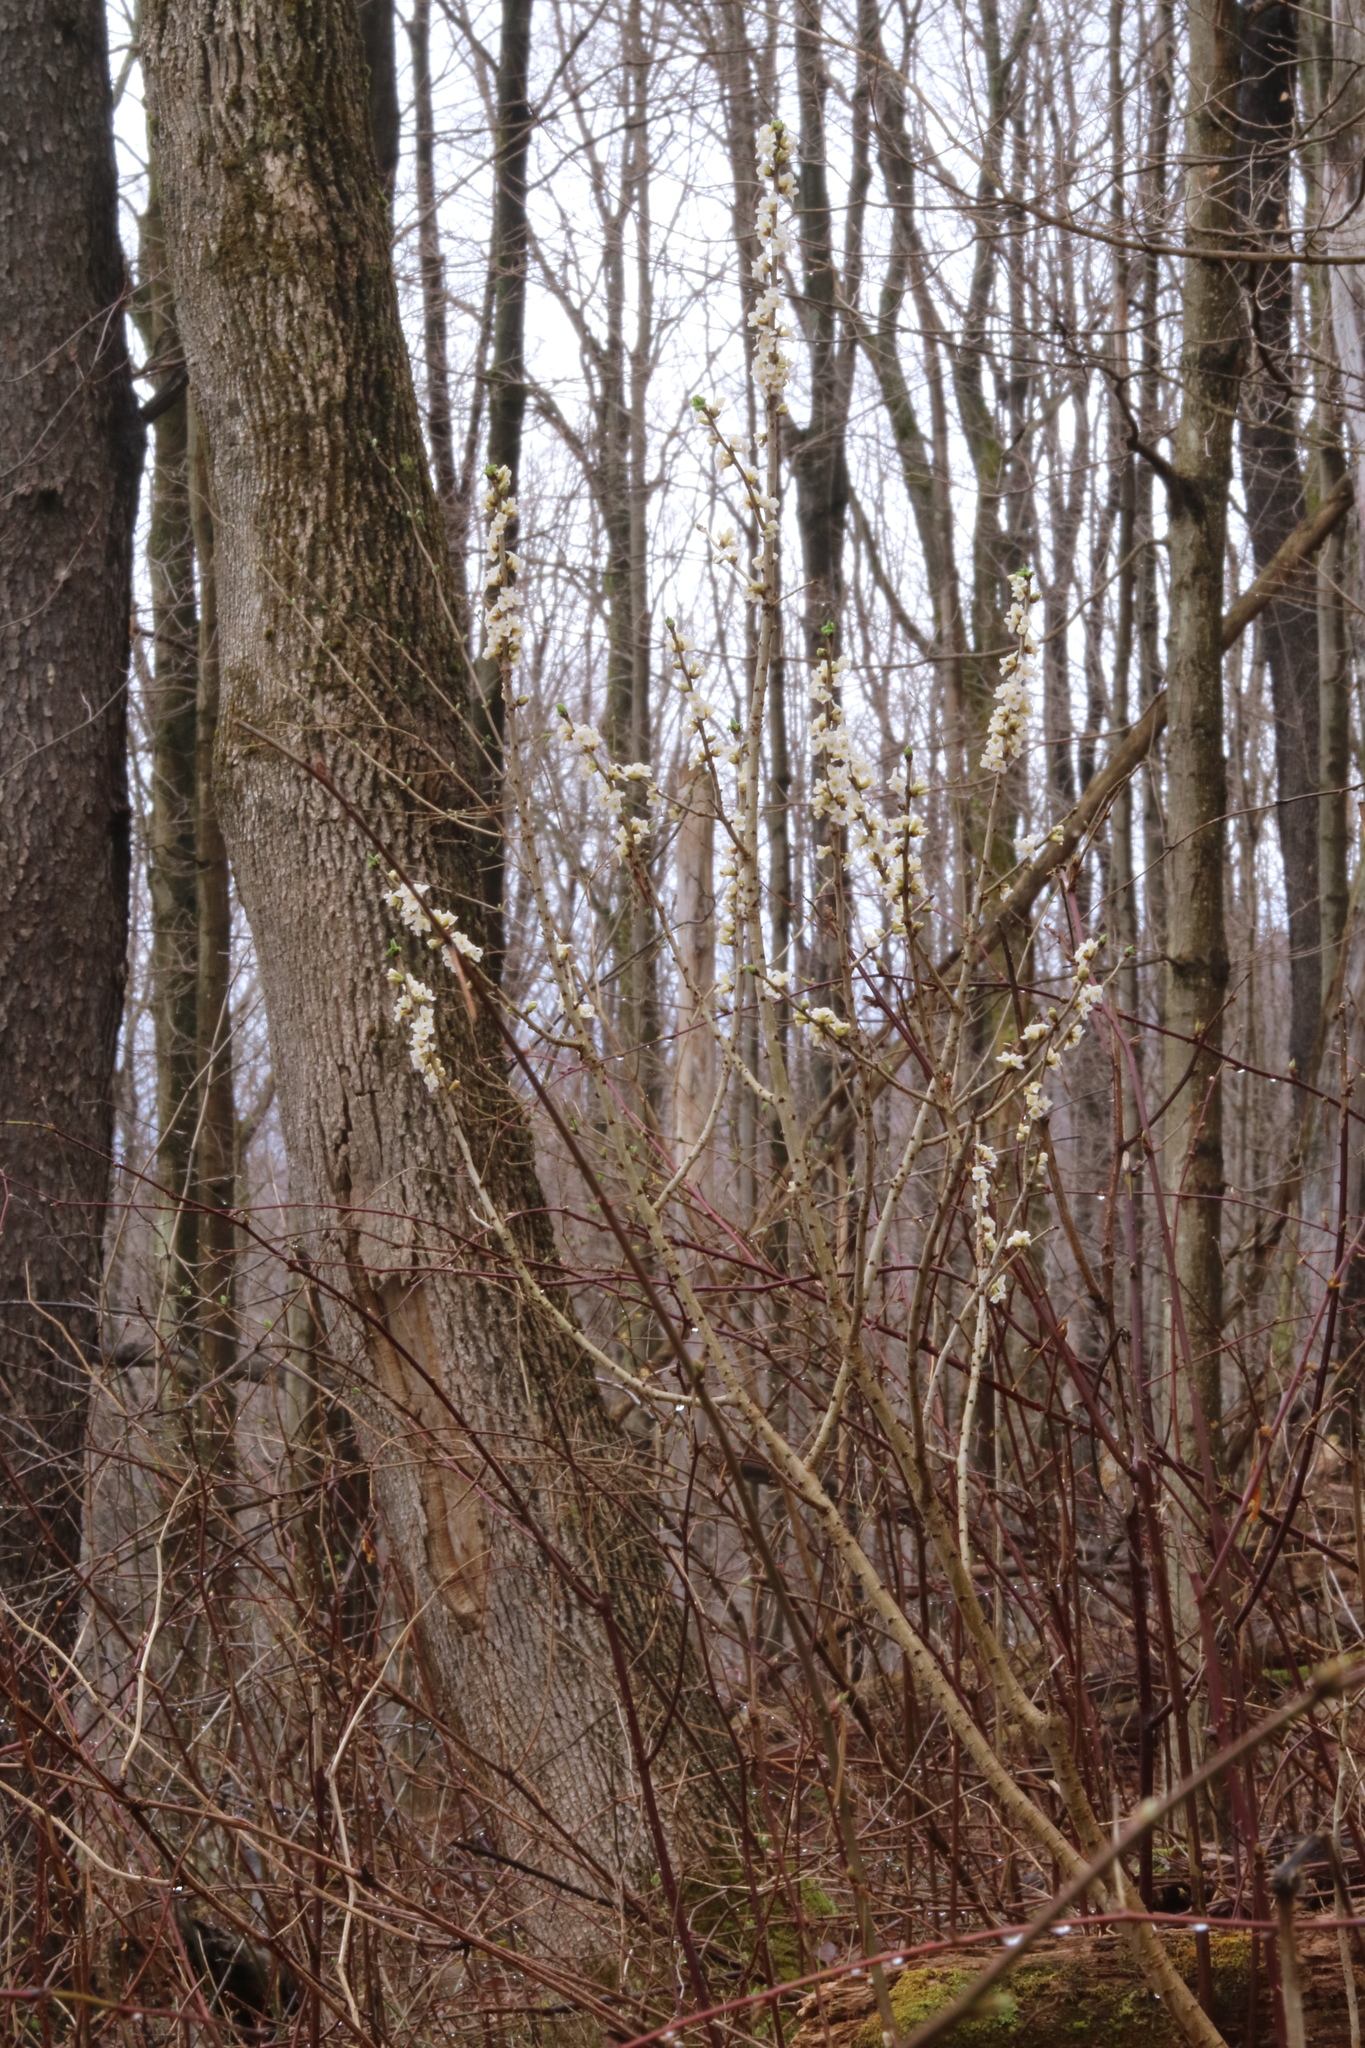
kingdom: Plantae
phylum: Tracheophyta
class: Magnoliopsida
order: Malvales
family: Thymelaeaceae
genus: Daphne
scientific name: Daphne mezereum
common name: Mezereon
